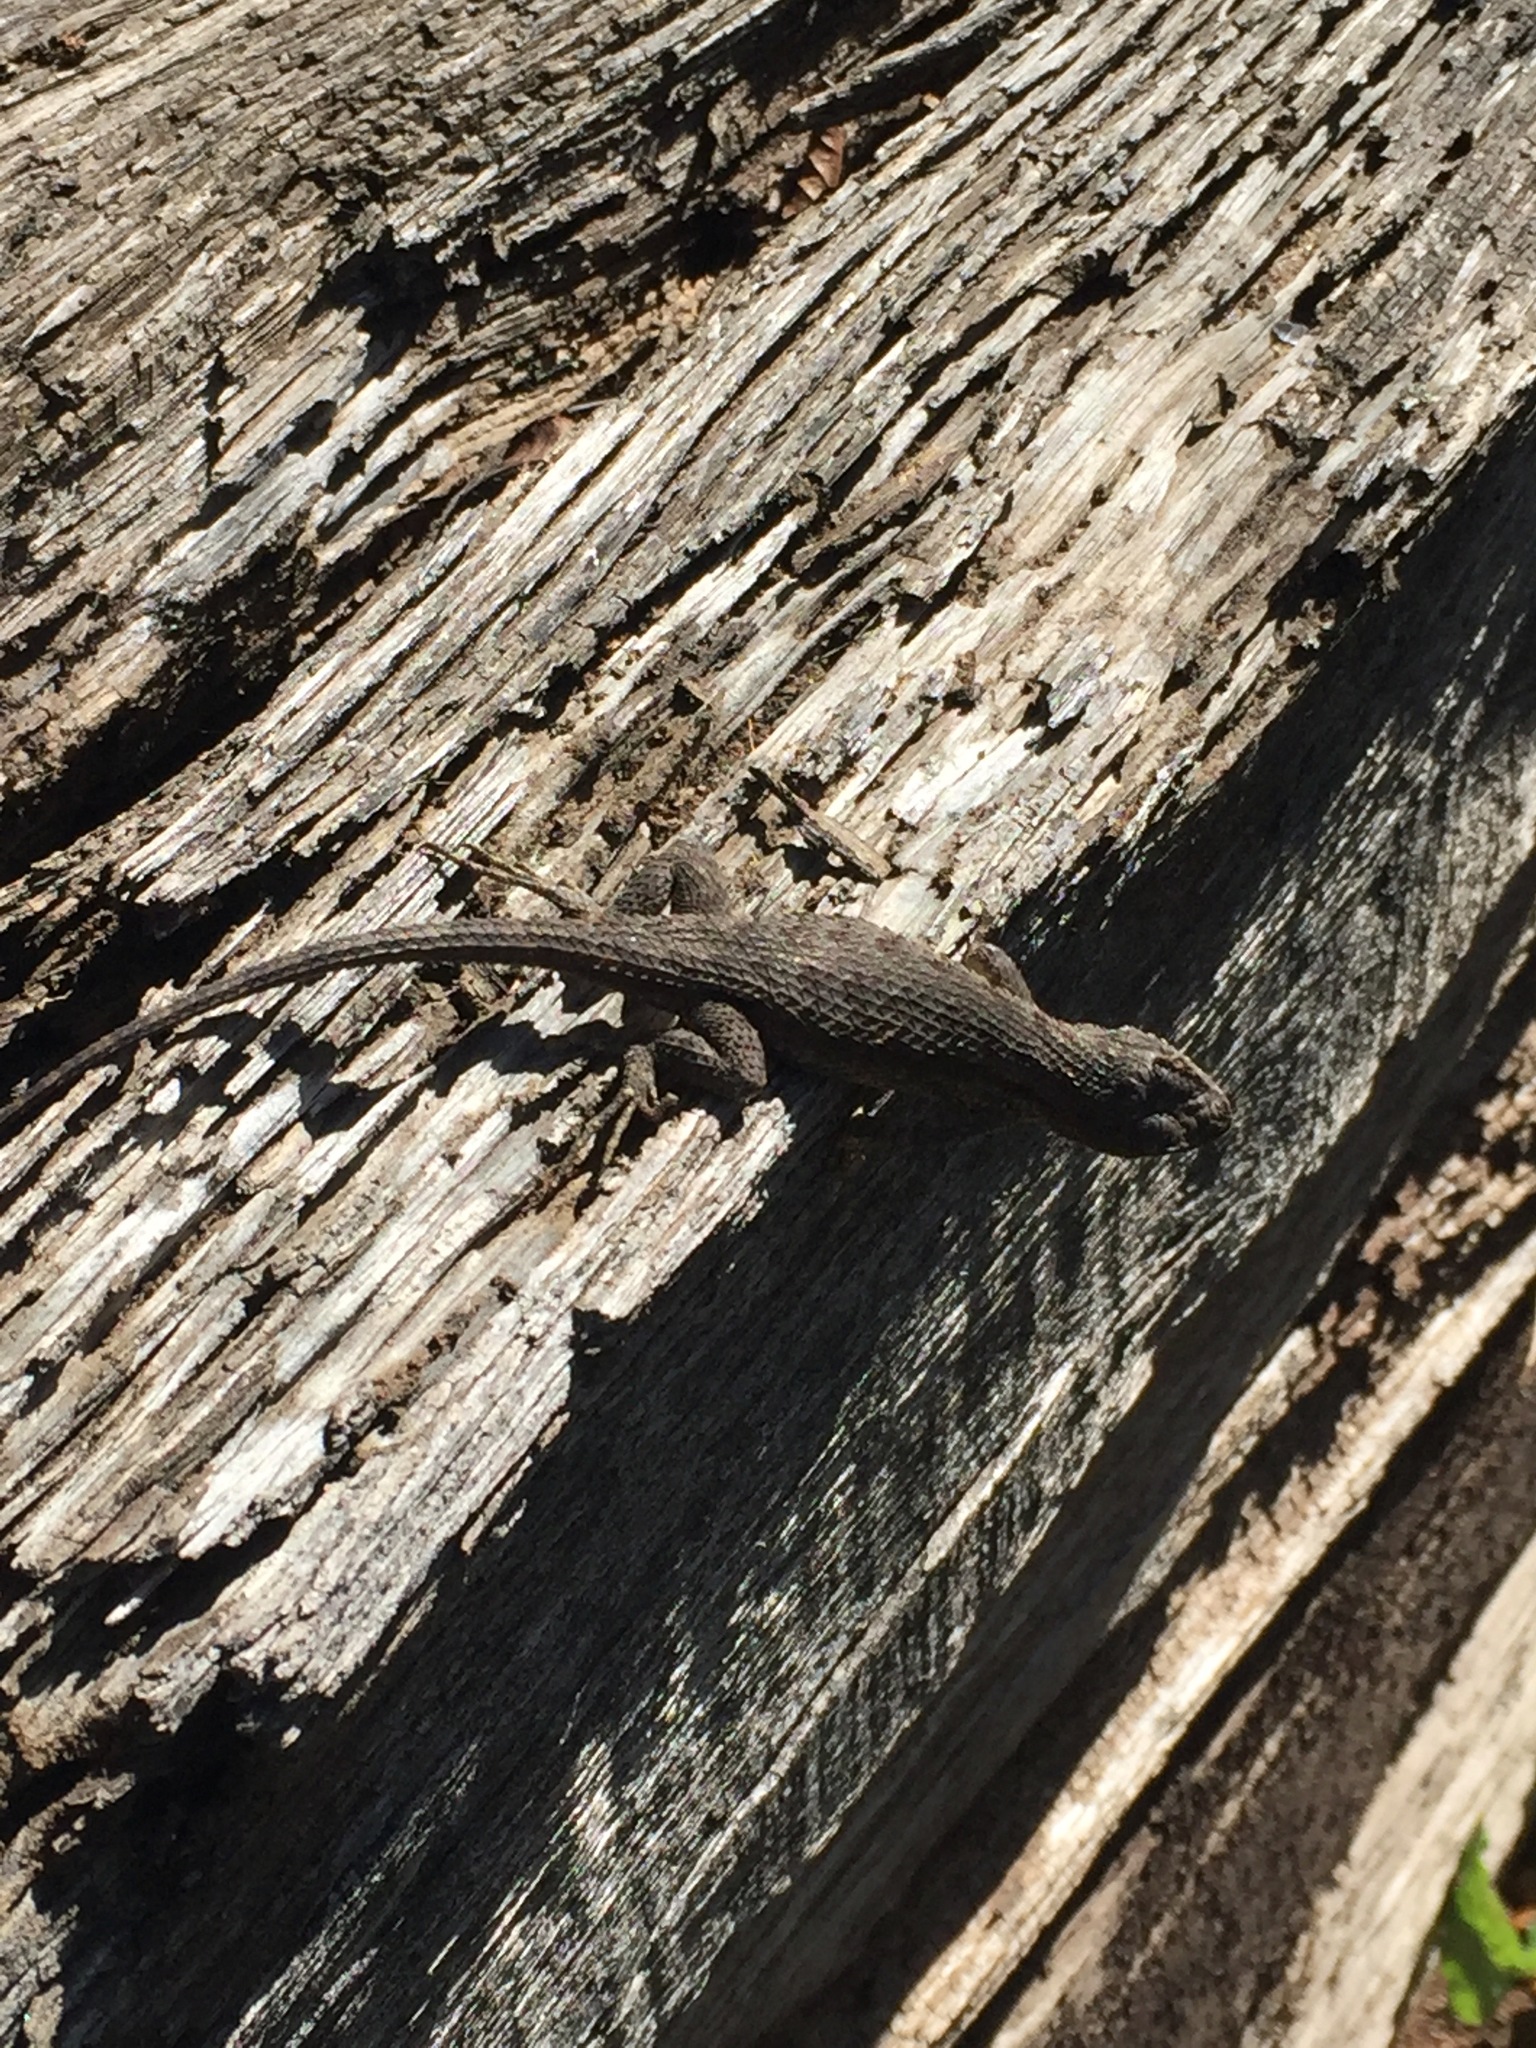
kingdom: Animalia
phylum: Chordata
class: Squamata
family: Phrynosomatidae
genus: Sceloporus
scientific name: Sceloporus occidentalis
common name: Western fence lizard
